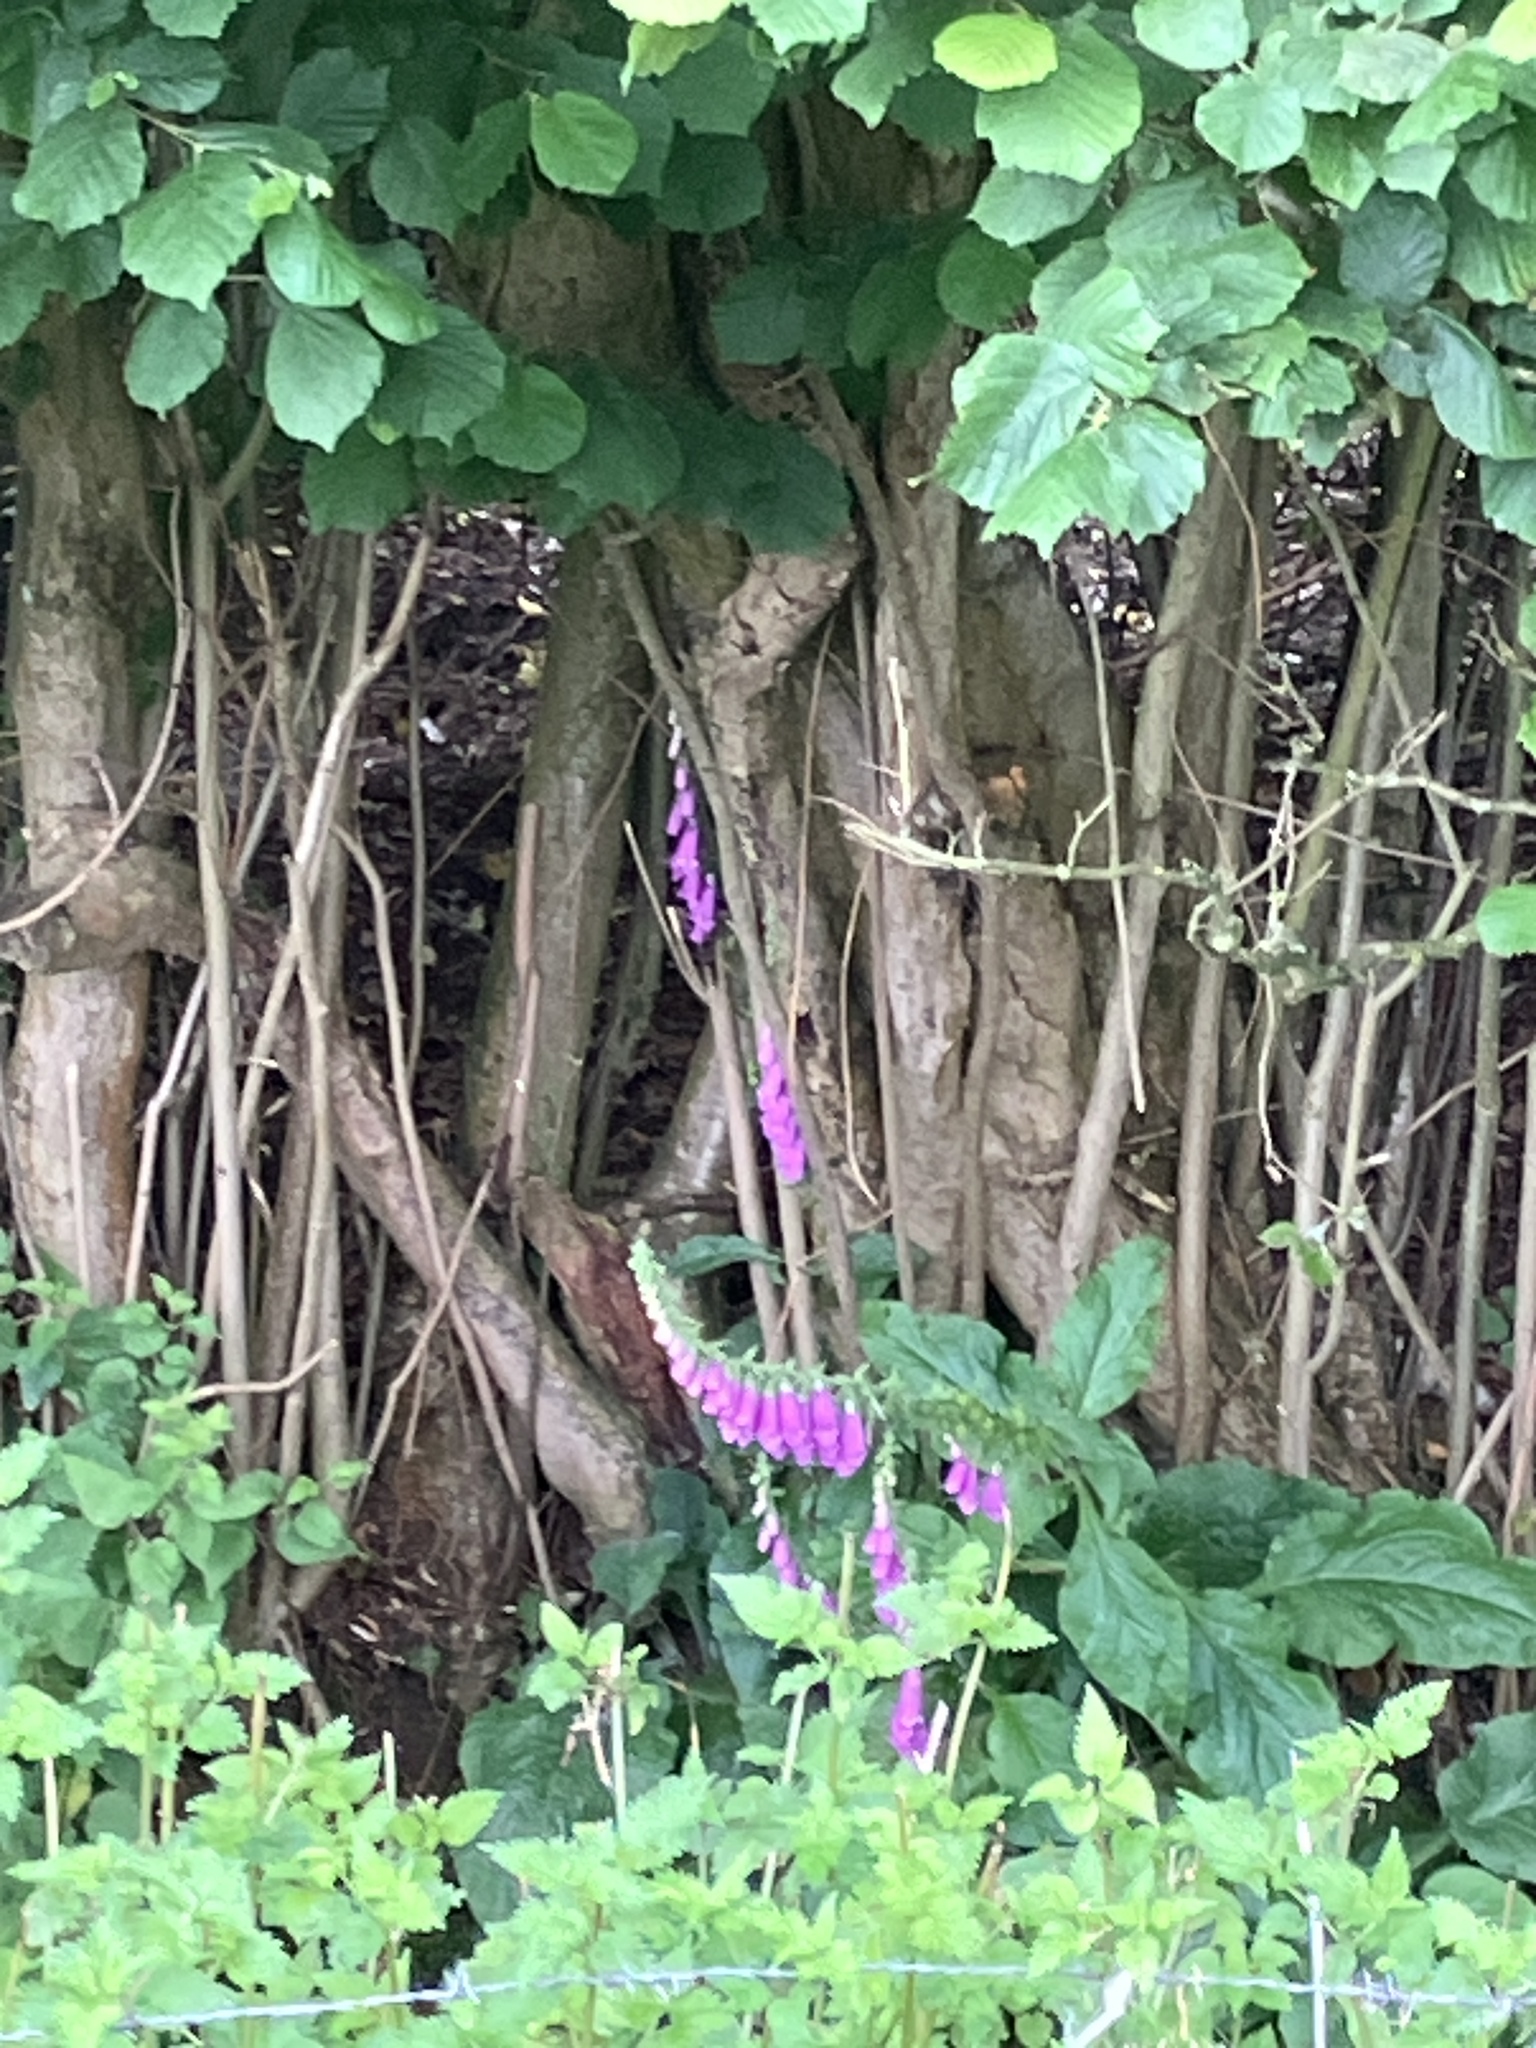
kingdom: Plantae
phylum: Tracheophyta
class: Magnoliopsida
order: Lamiales
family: Plantaginaceae
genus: Digitalis
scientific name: Digitalis purpurea
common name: Foxglove
